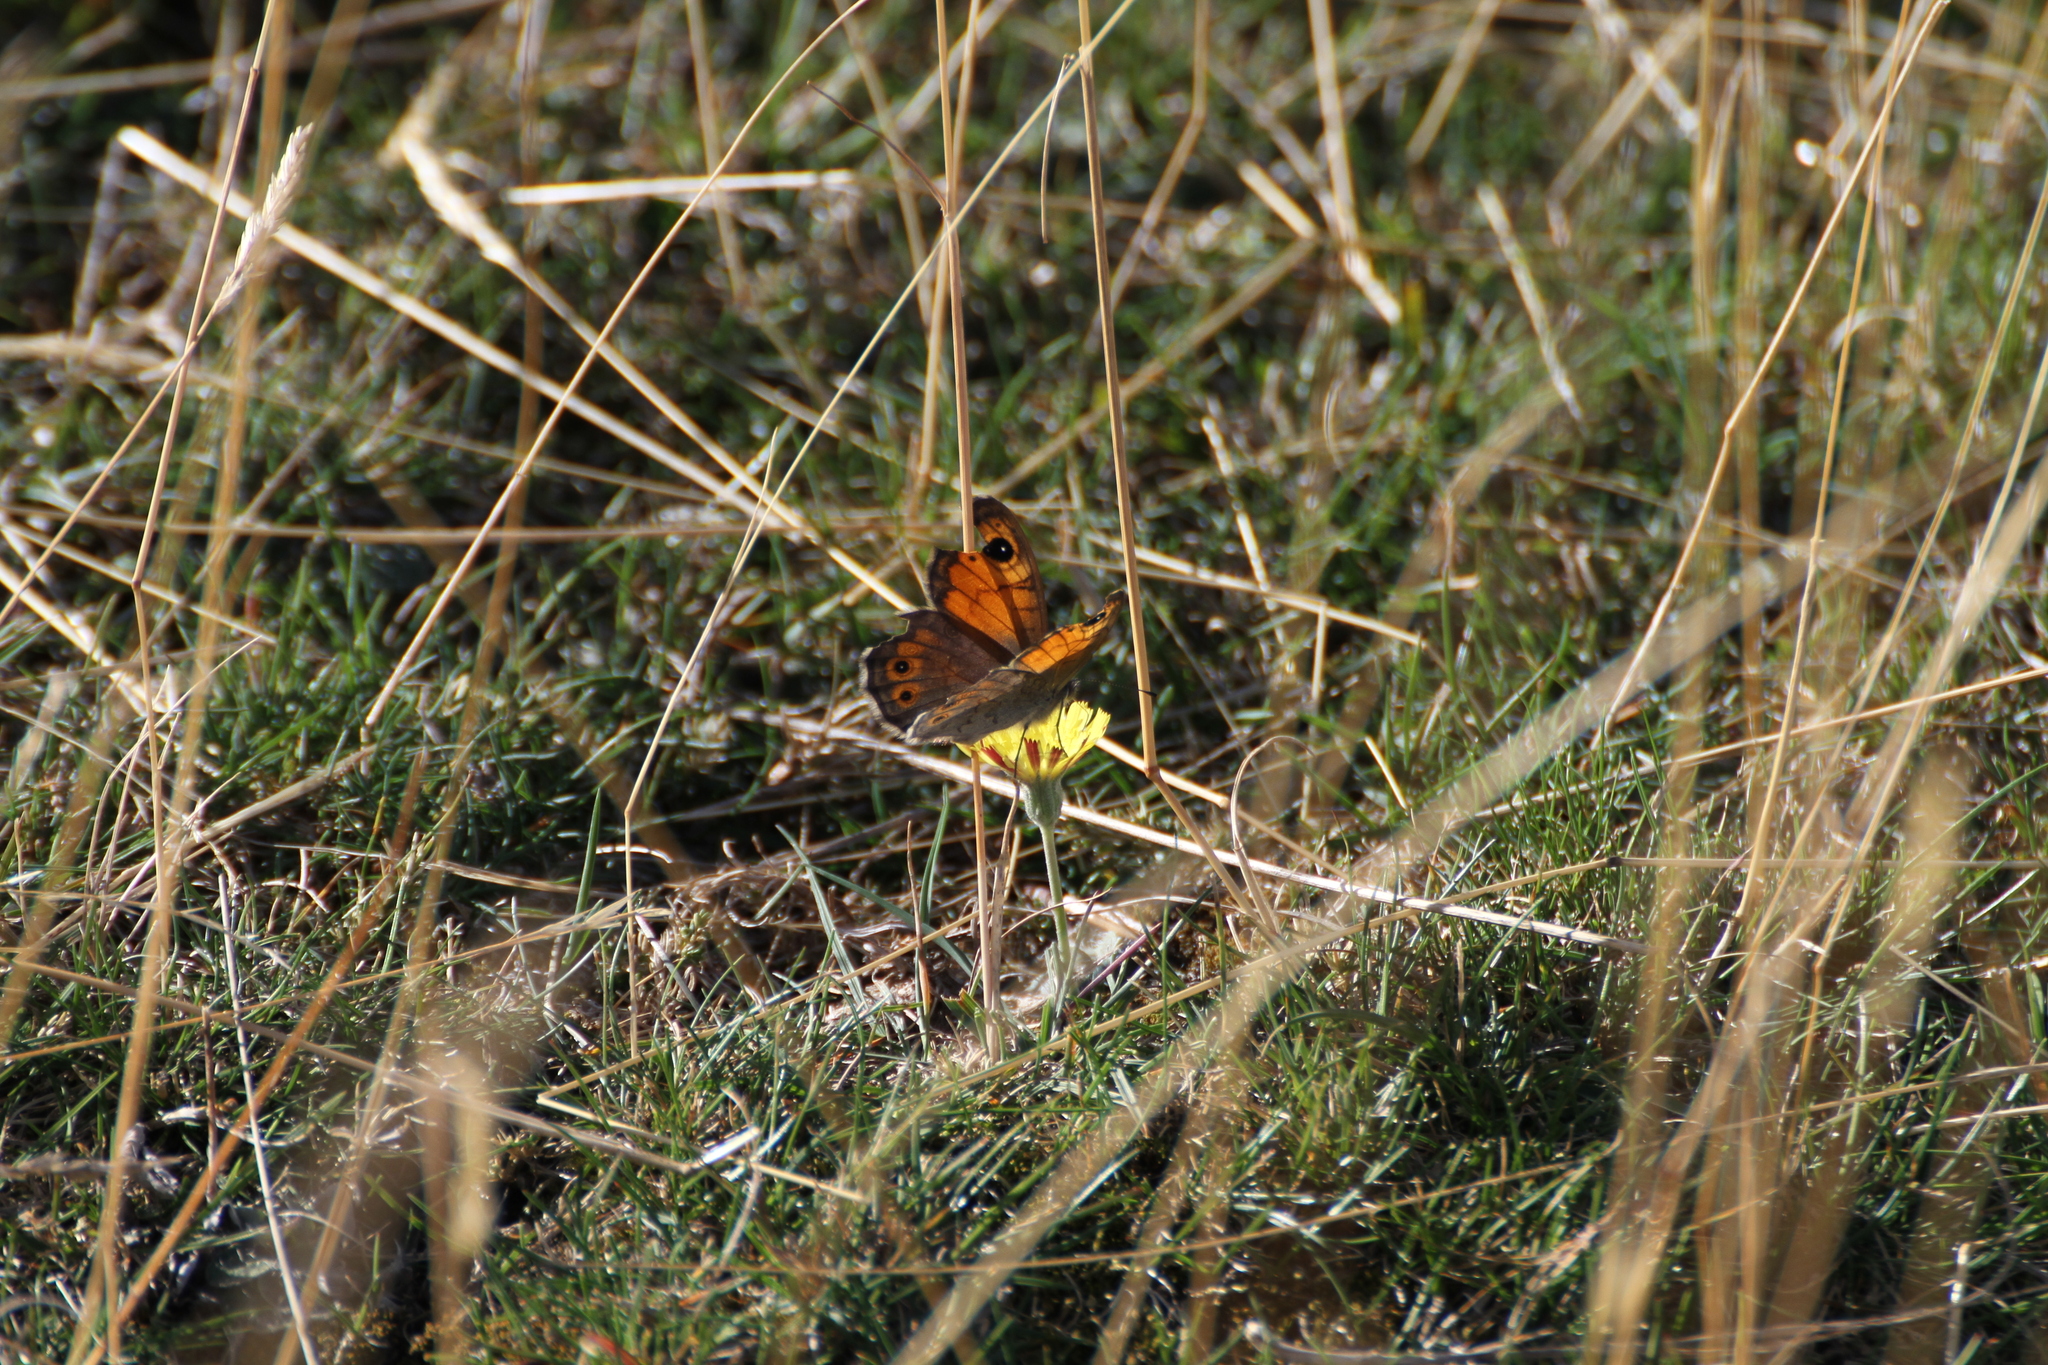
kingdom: Animalia
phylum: Arthropoda
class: Insecta
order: Lepidoptera
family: Nymphalidae
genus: Pararge
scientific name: Pararge Lasiommata maera
